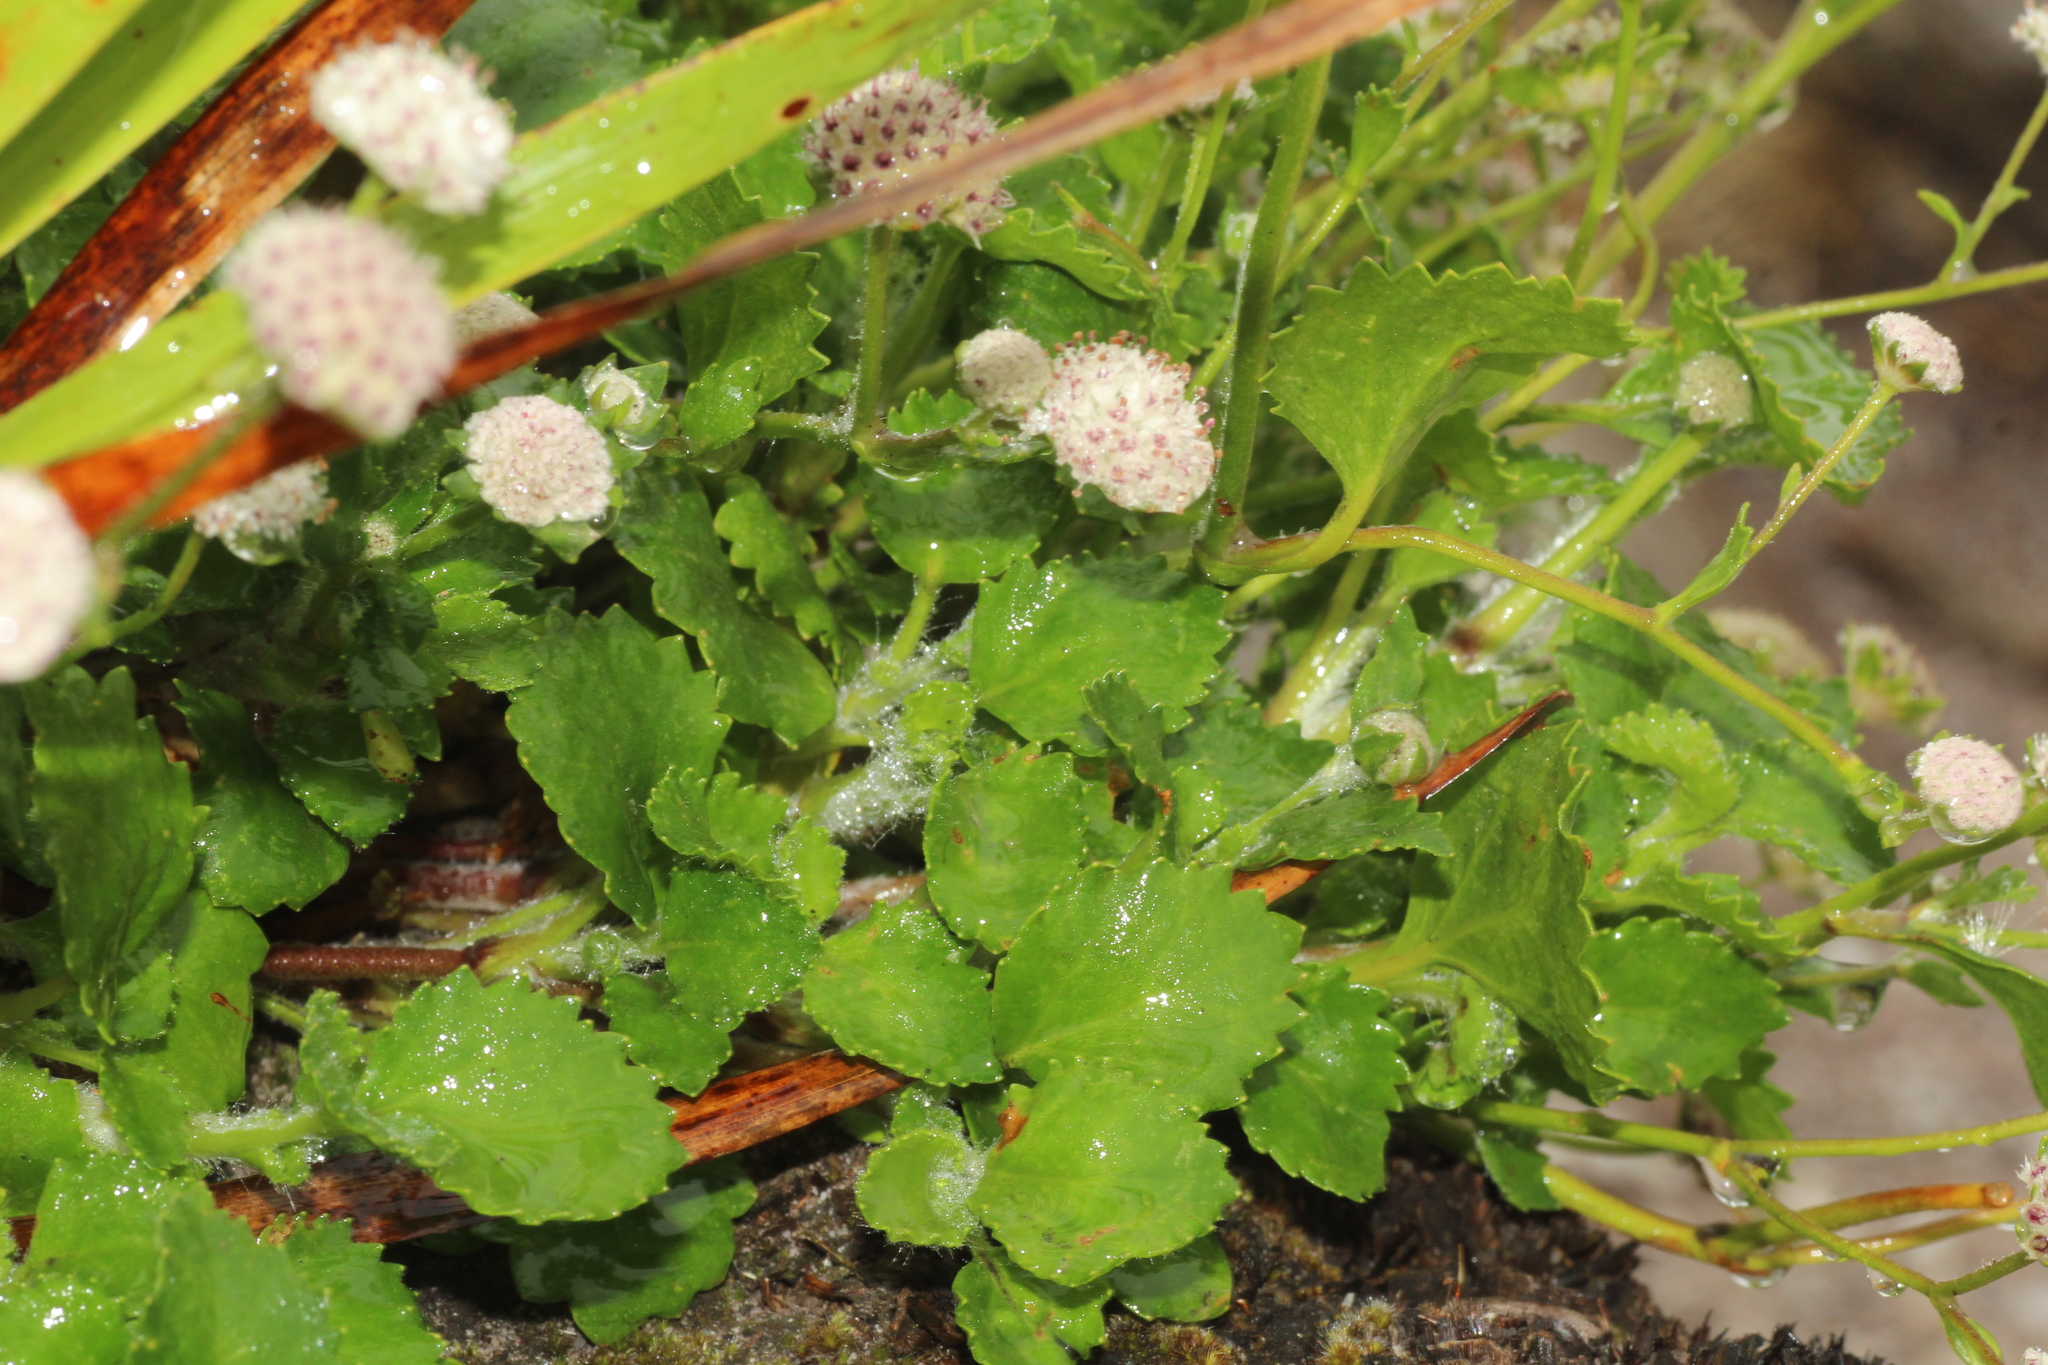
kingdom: Plantae
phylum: Tracheophyta
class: Magnoliopsida
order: Apiales
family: Apiaceae
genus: Actinotus
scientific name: Actinotus rhomboideus
